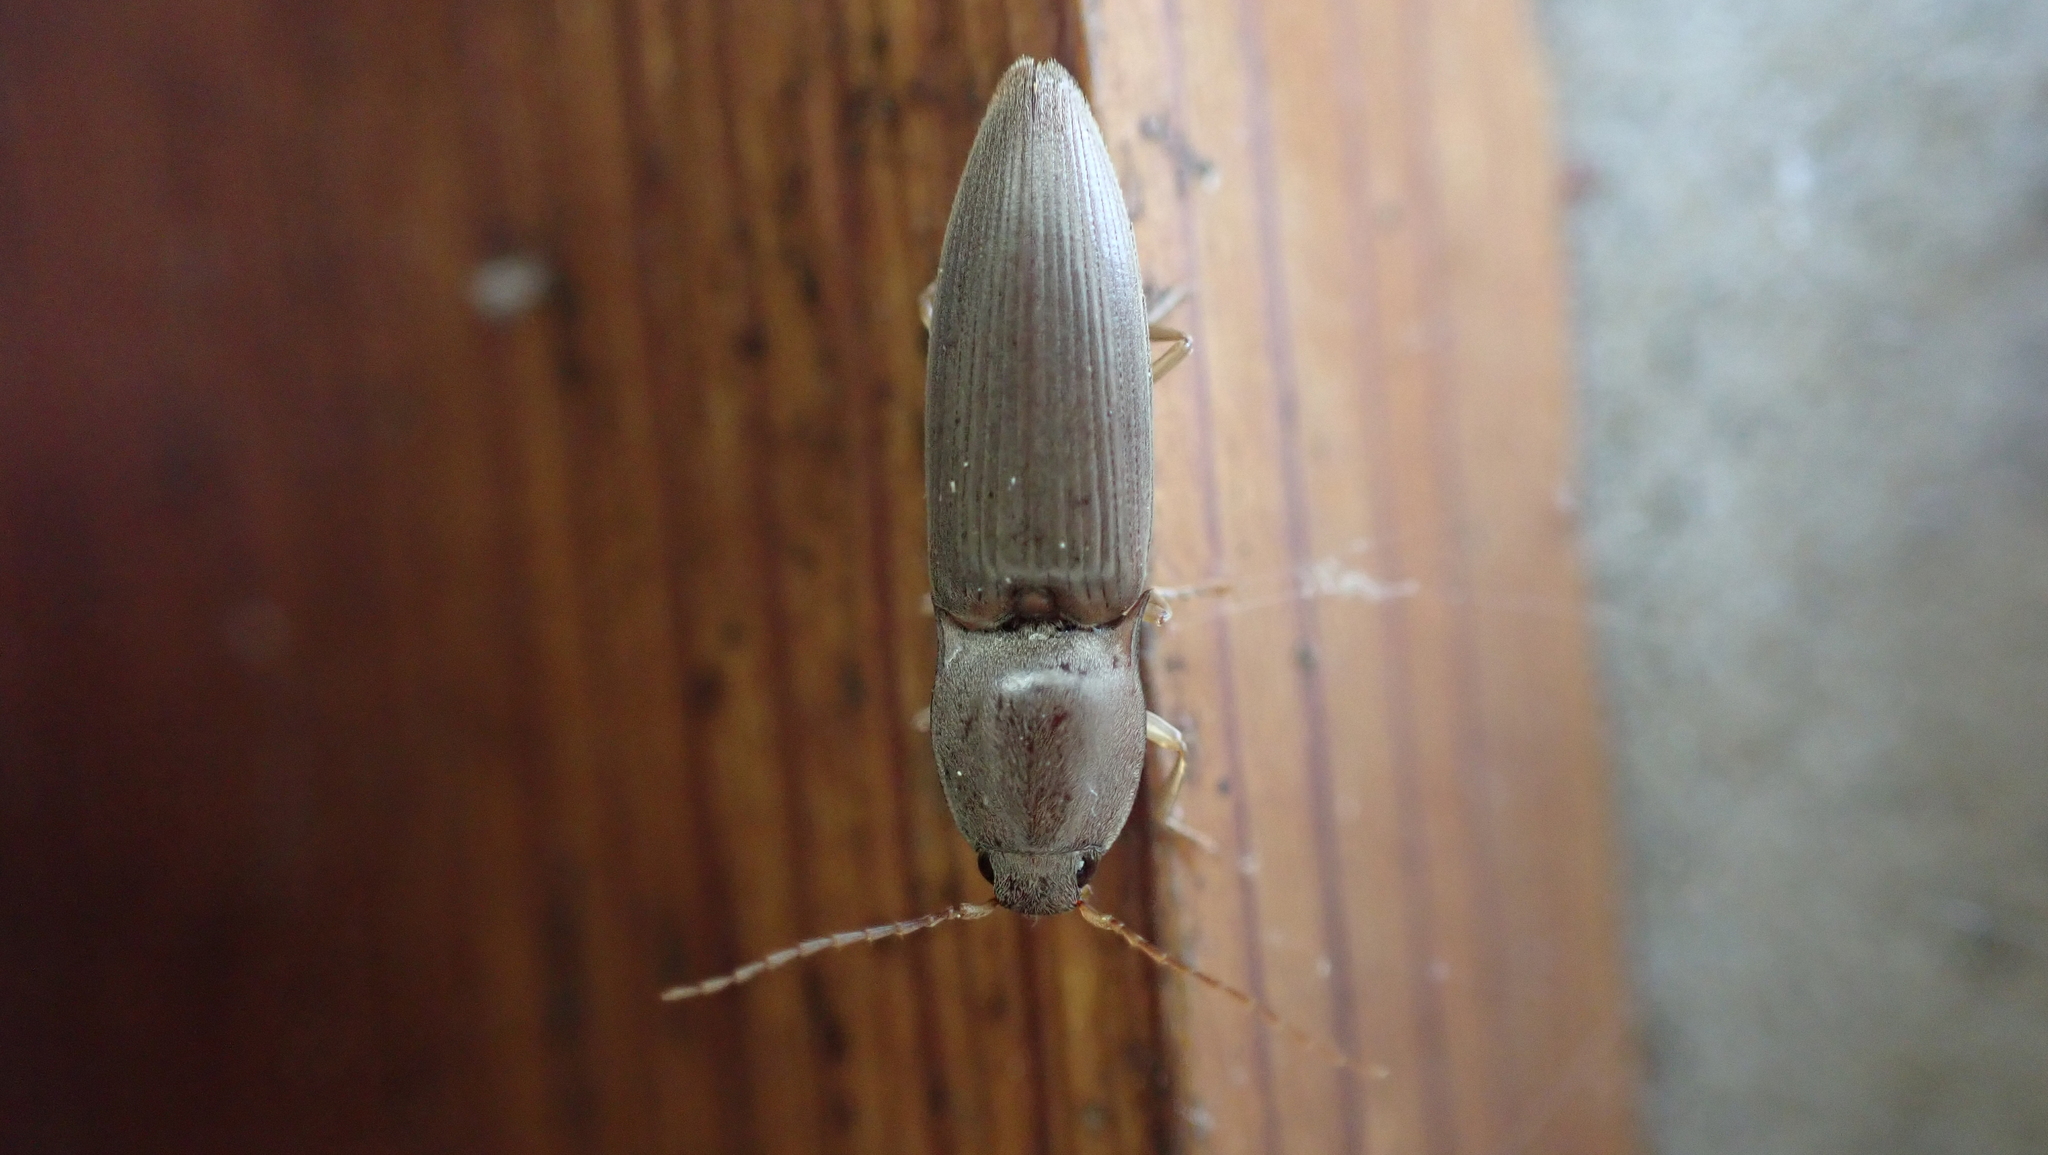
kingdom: Animalia
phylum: Arthropoda
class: Insecta
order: Coleoptera
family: Elateridae
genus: Monocrepidius
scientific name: Monocrepidius lividus
